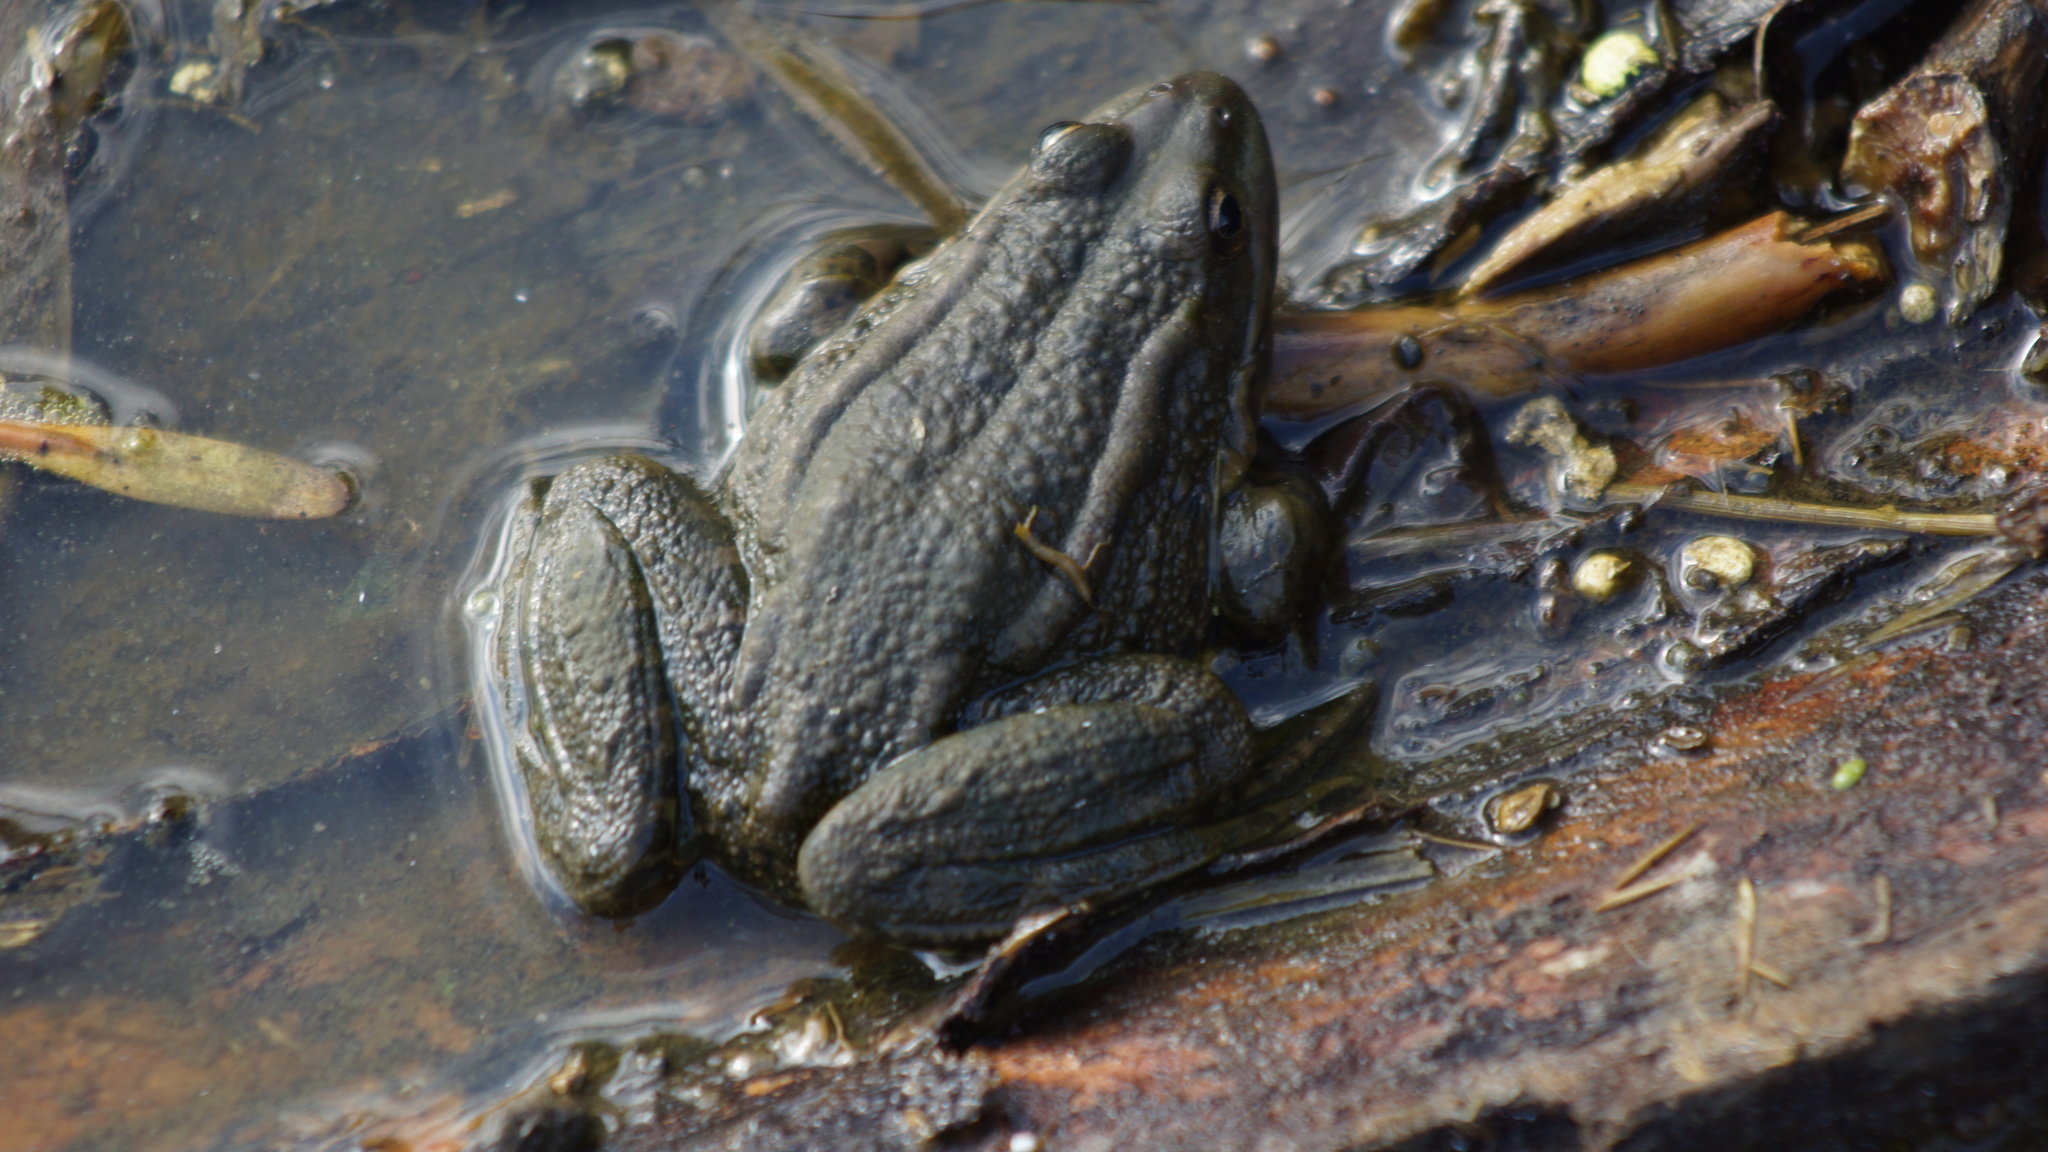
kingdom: Animalia
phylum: Chordata
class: Amphibia
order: Anura
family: Ranidae
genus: Pelophylax
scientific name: Pelophylax ridibundus
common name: Marsh frog
